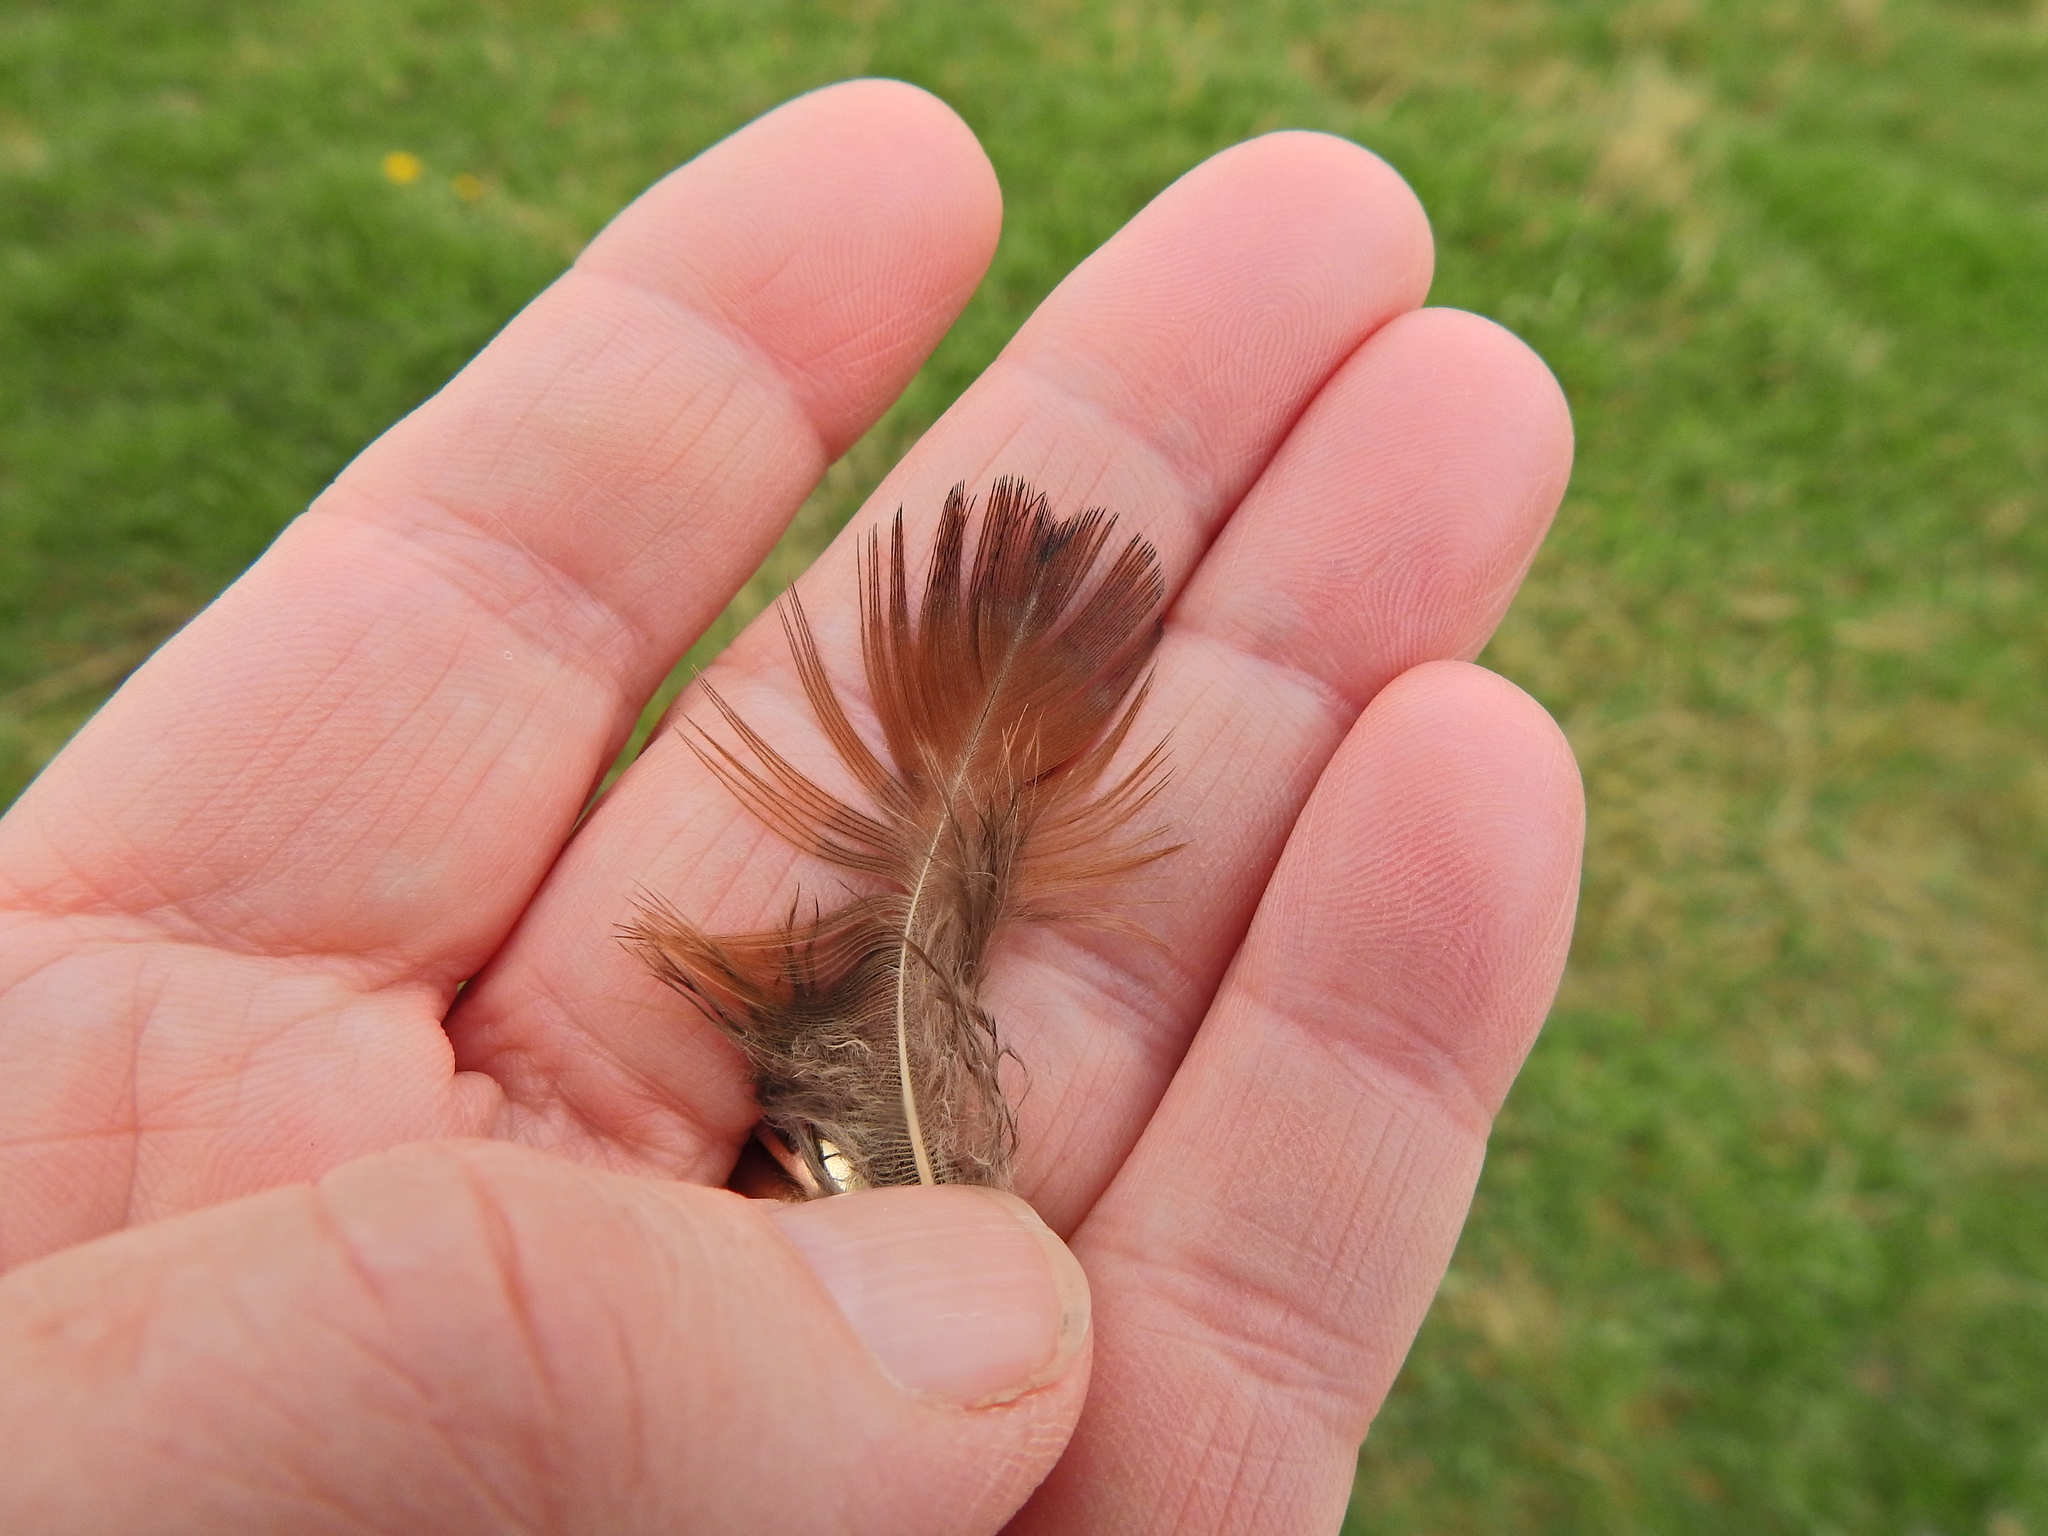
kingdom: Animalia
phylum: Chordata
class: Aves
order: Galliformes
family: Phasianidae
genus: Phasianus
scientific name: Phasianus colchicus
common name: Common pheasant
